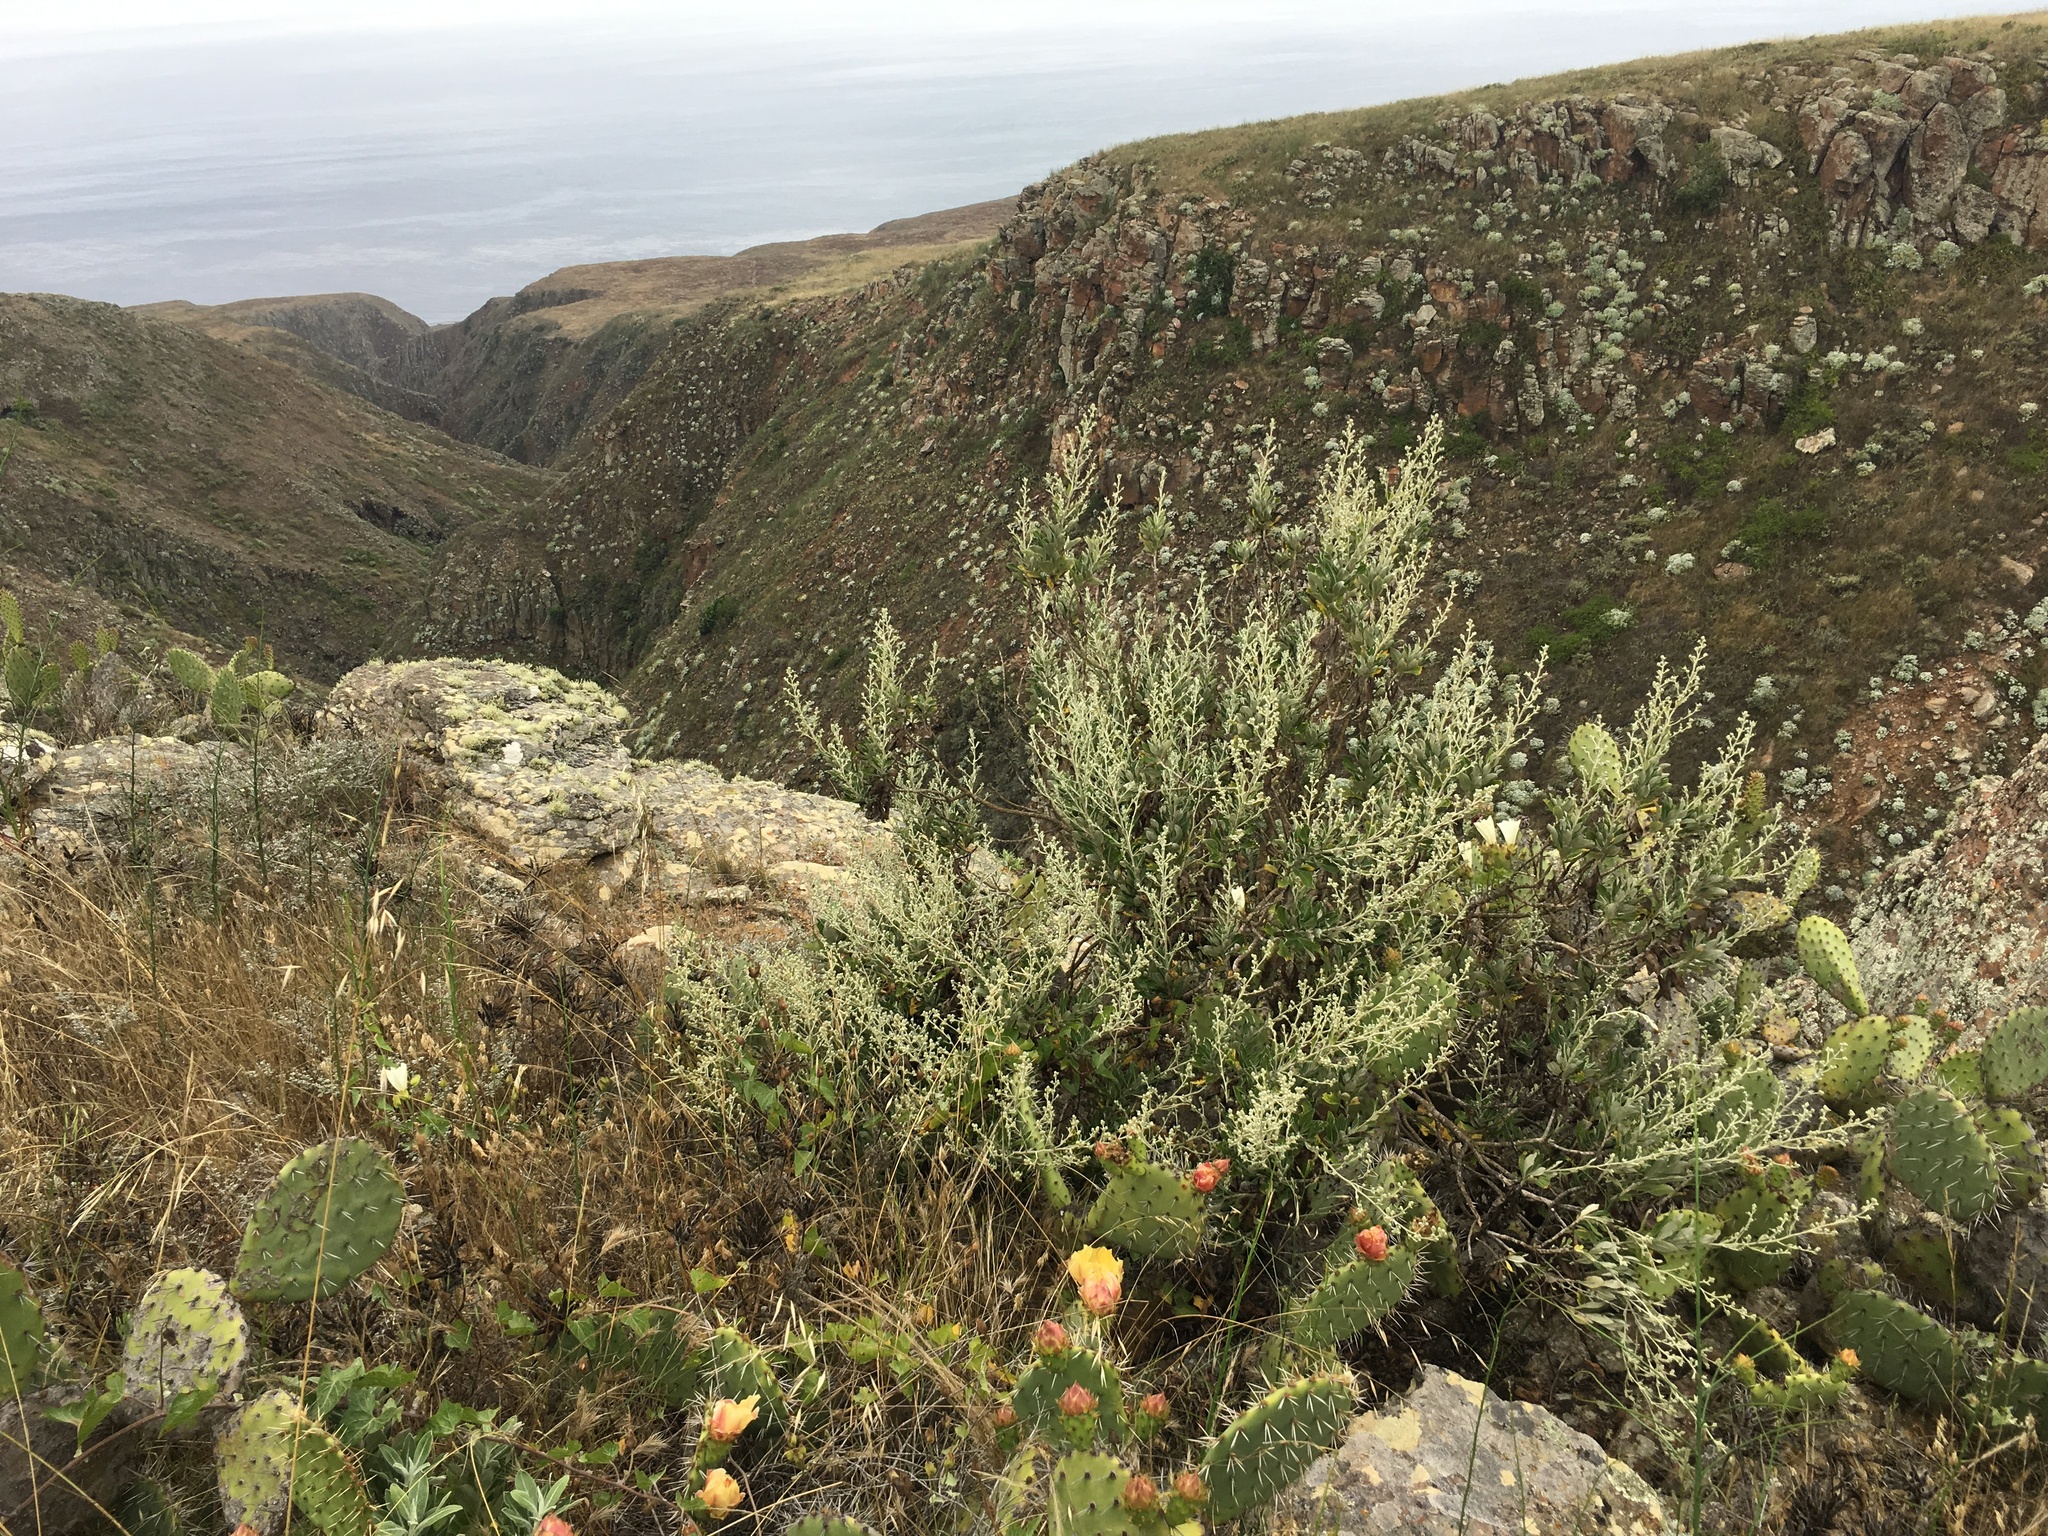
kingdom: Plantae
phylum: Tracheophyta
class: Magnoliopsida
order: Asterales
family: Asteraceae
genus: Hazardia
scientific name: Hazardia cana
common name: San clemente island bristleweed
